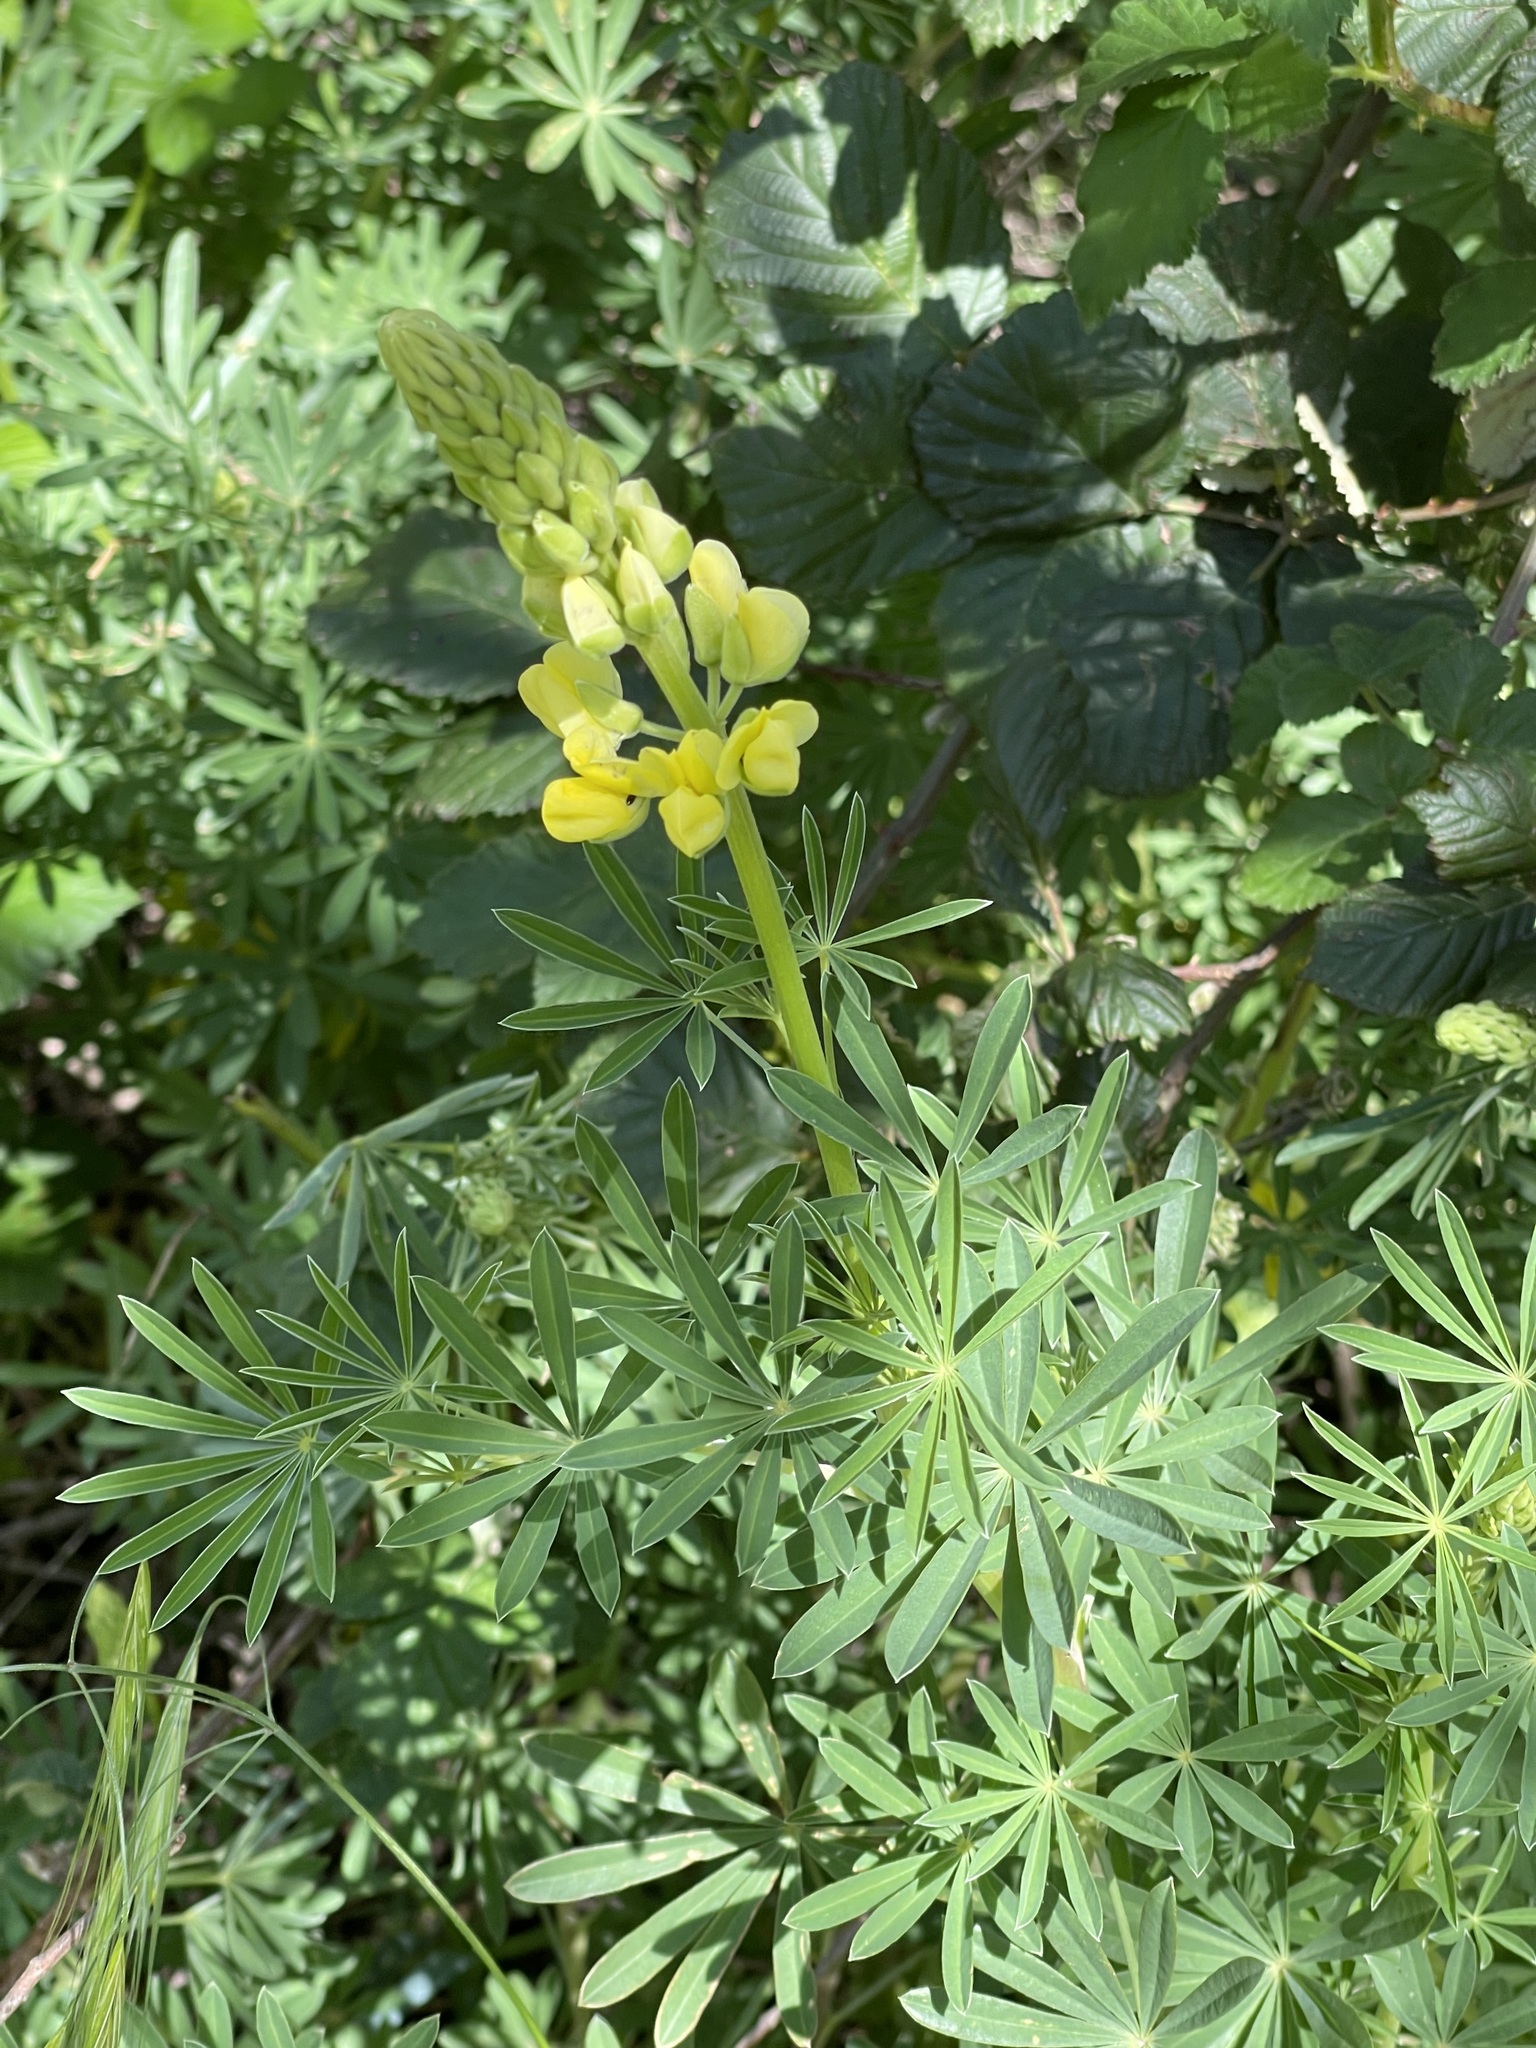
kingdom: Plantae
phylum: Tracheophyta
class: Magnoliopsida
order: Fabales
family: Fabaceae
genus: Lupinus
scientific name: Lupinus arboreus
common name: Yellow bush lupine
